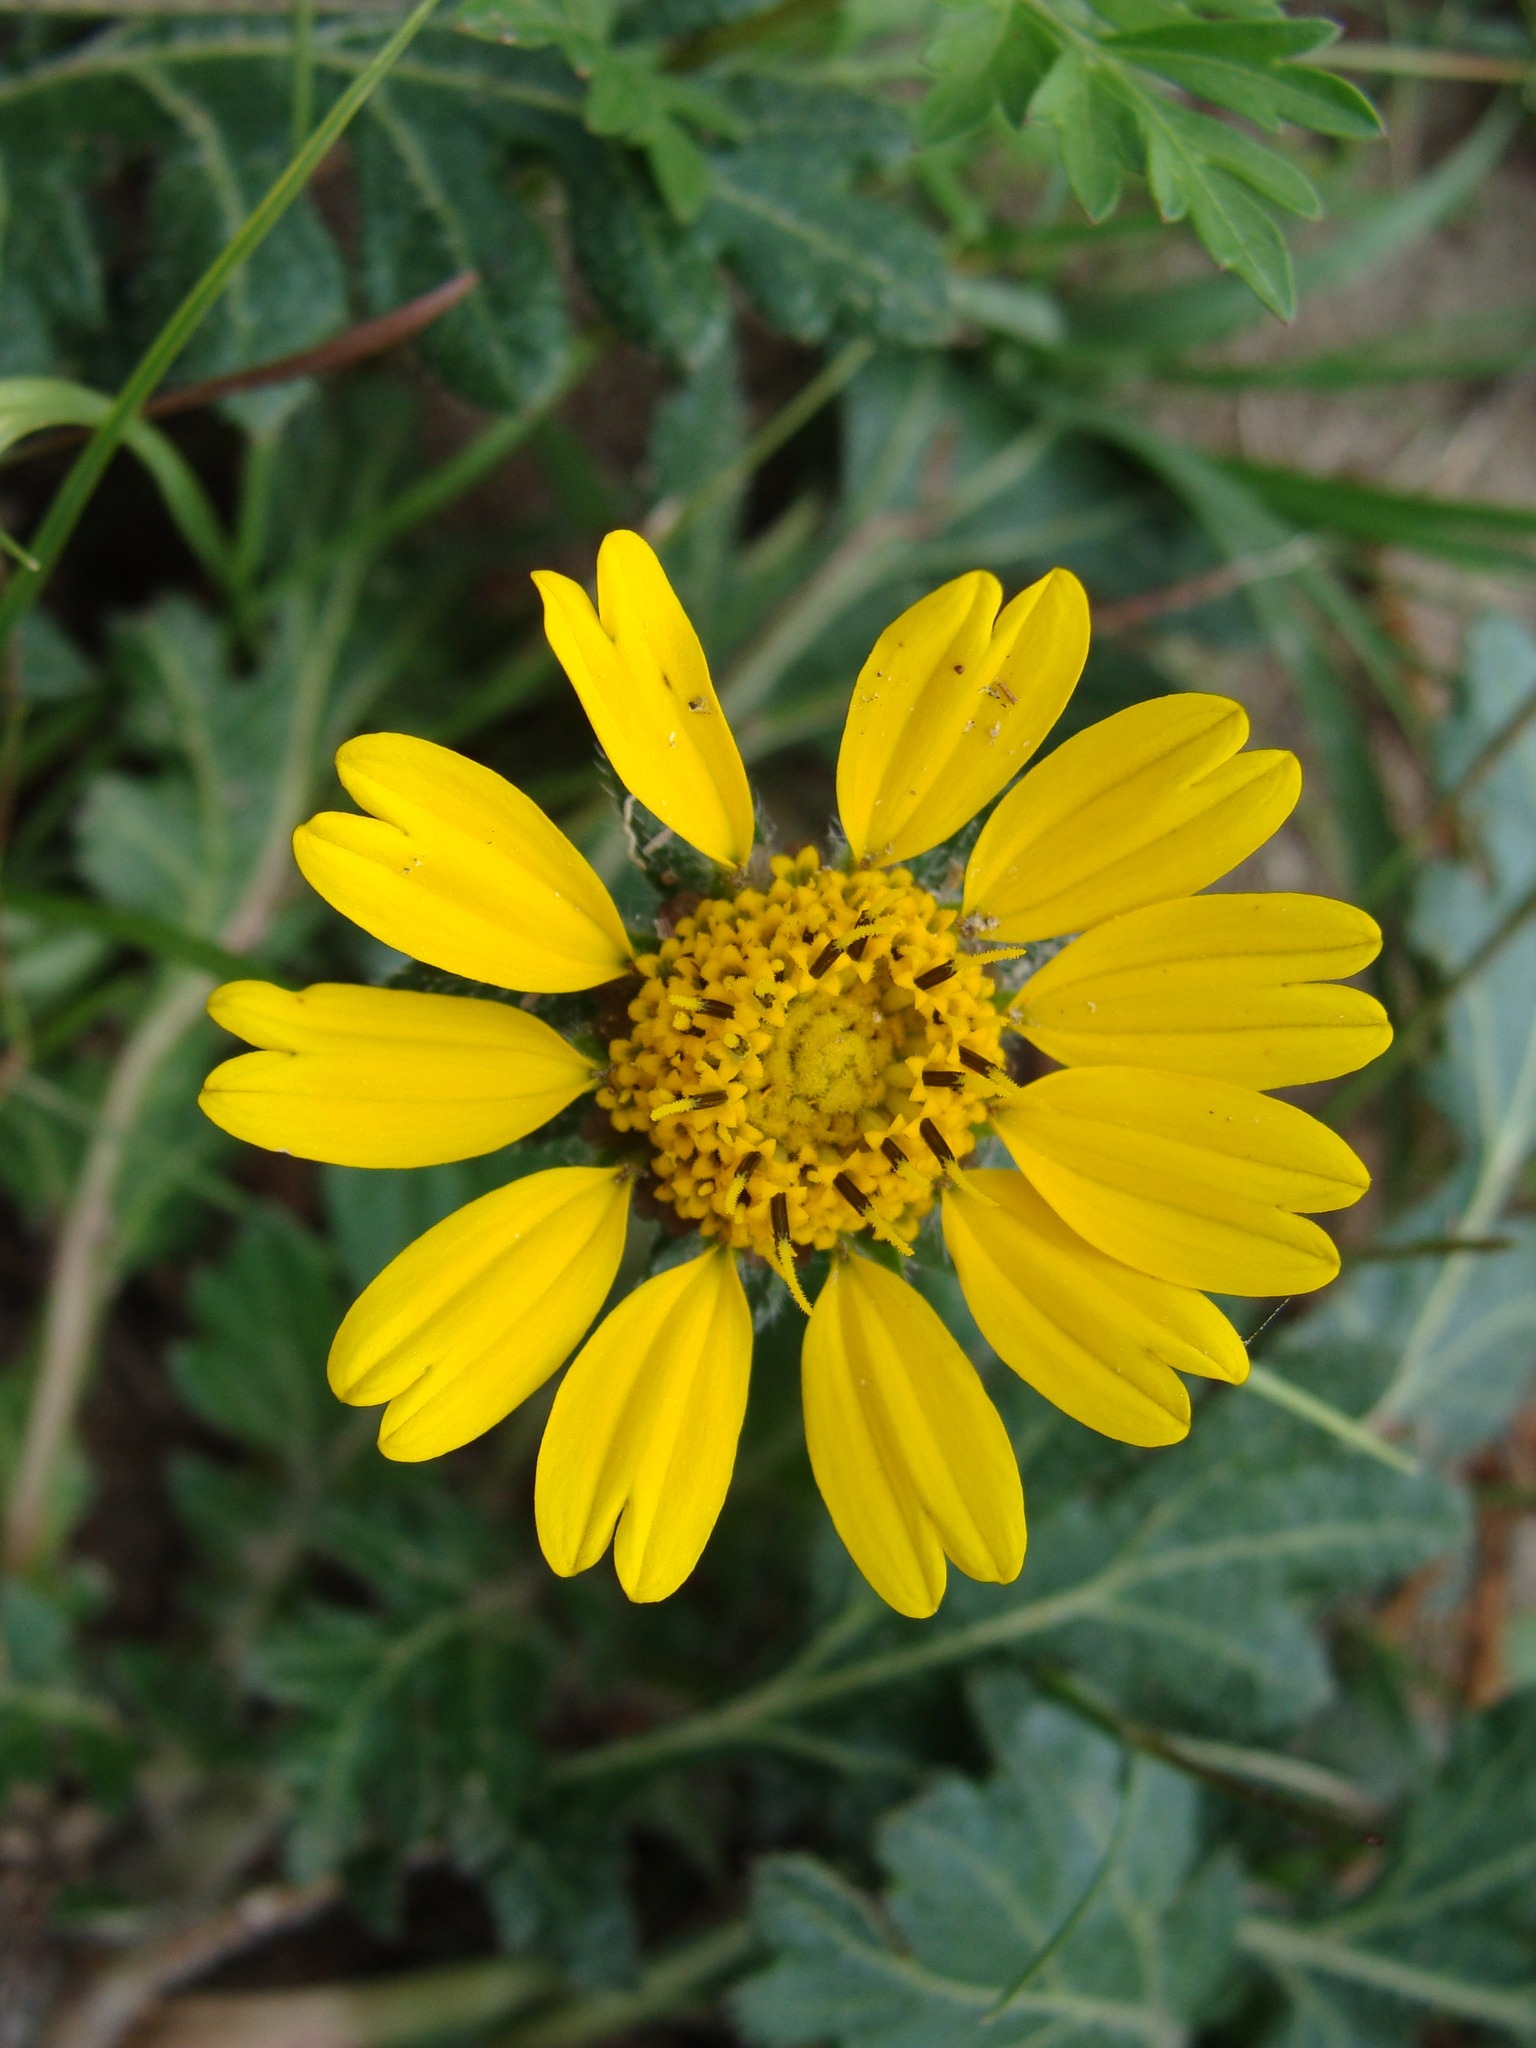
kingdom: Plantae
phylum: Tracheophyta
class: Magnoliopsida
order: Asterales
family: Asteraceae
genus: Dugesia
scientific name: Dugesia mexicana
